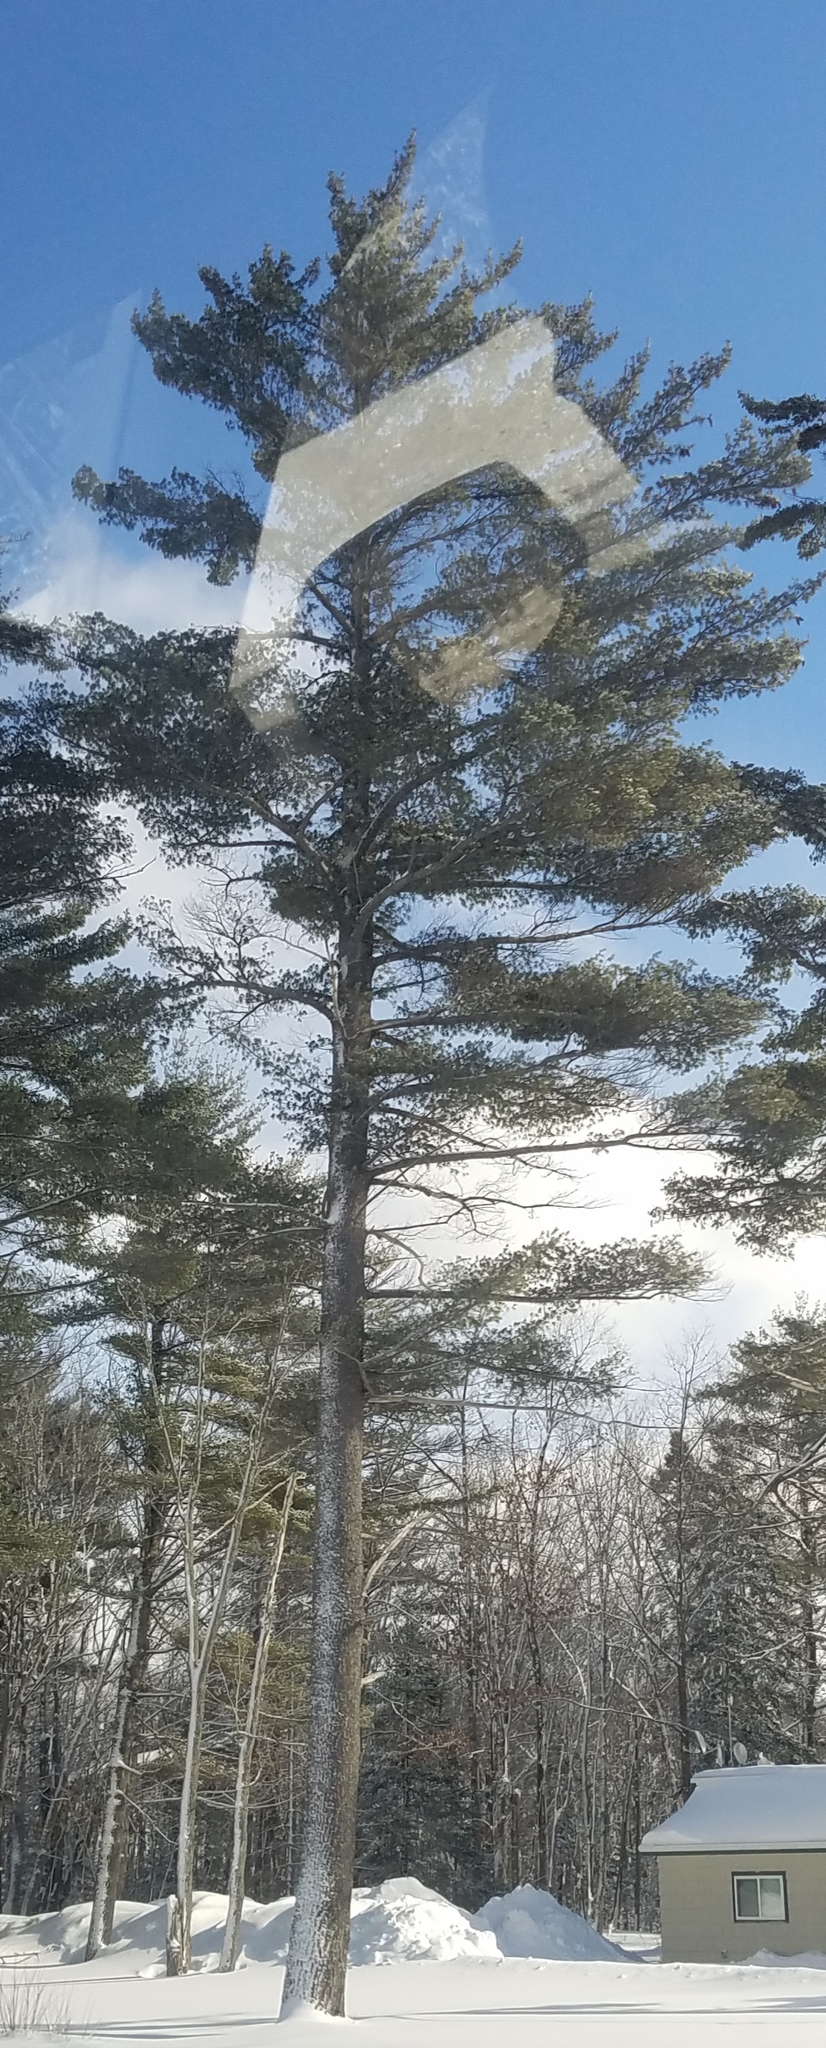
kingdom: Plantae
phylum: Tracheophyta
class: Pinopsida
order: Pinales
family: Pinaceae
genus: Pinus
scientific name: Pinus strobus
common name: Weymouth pine
